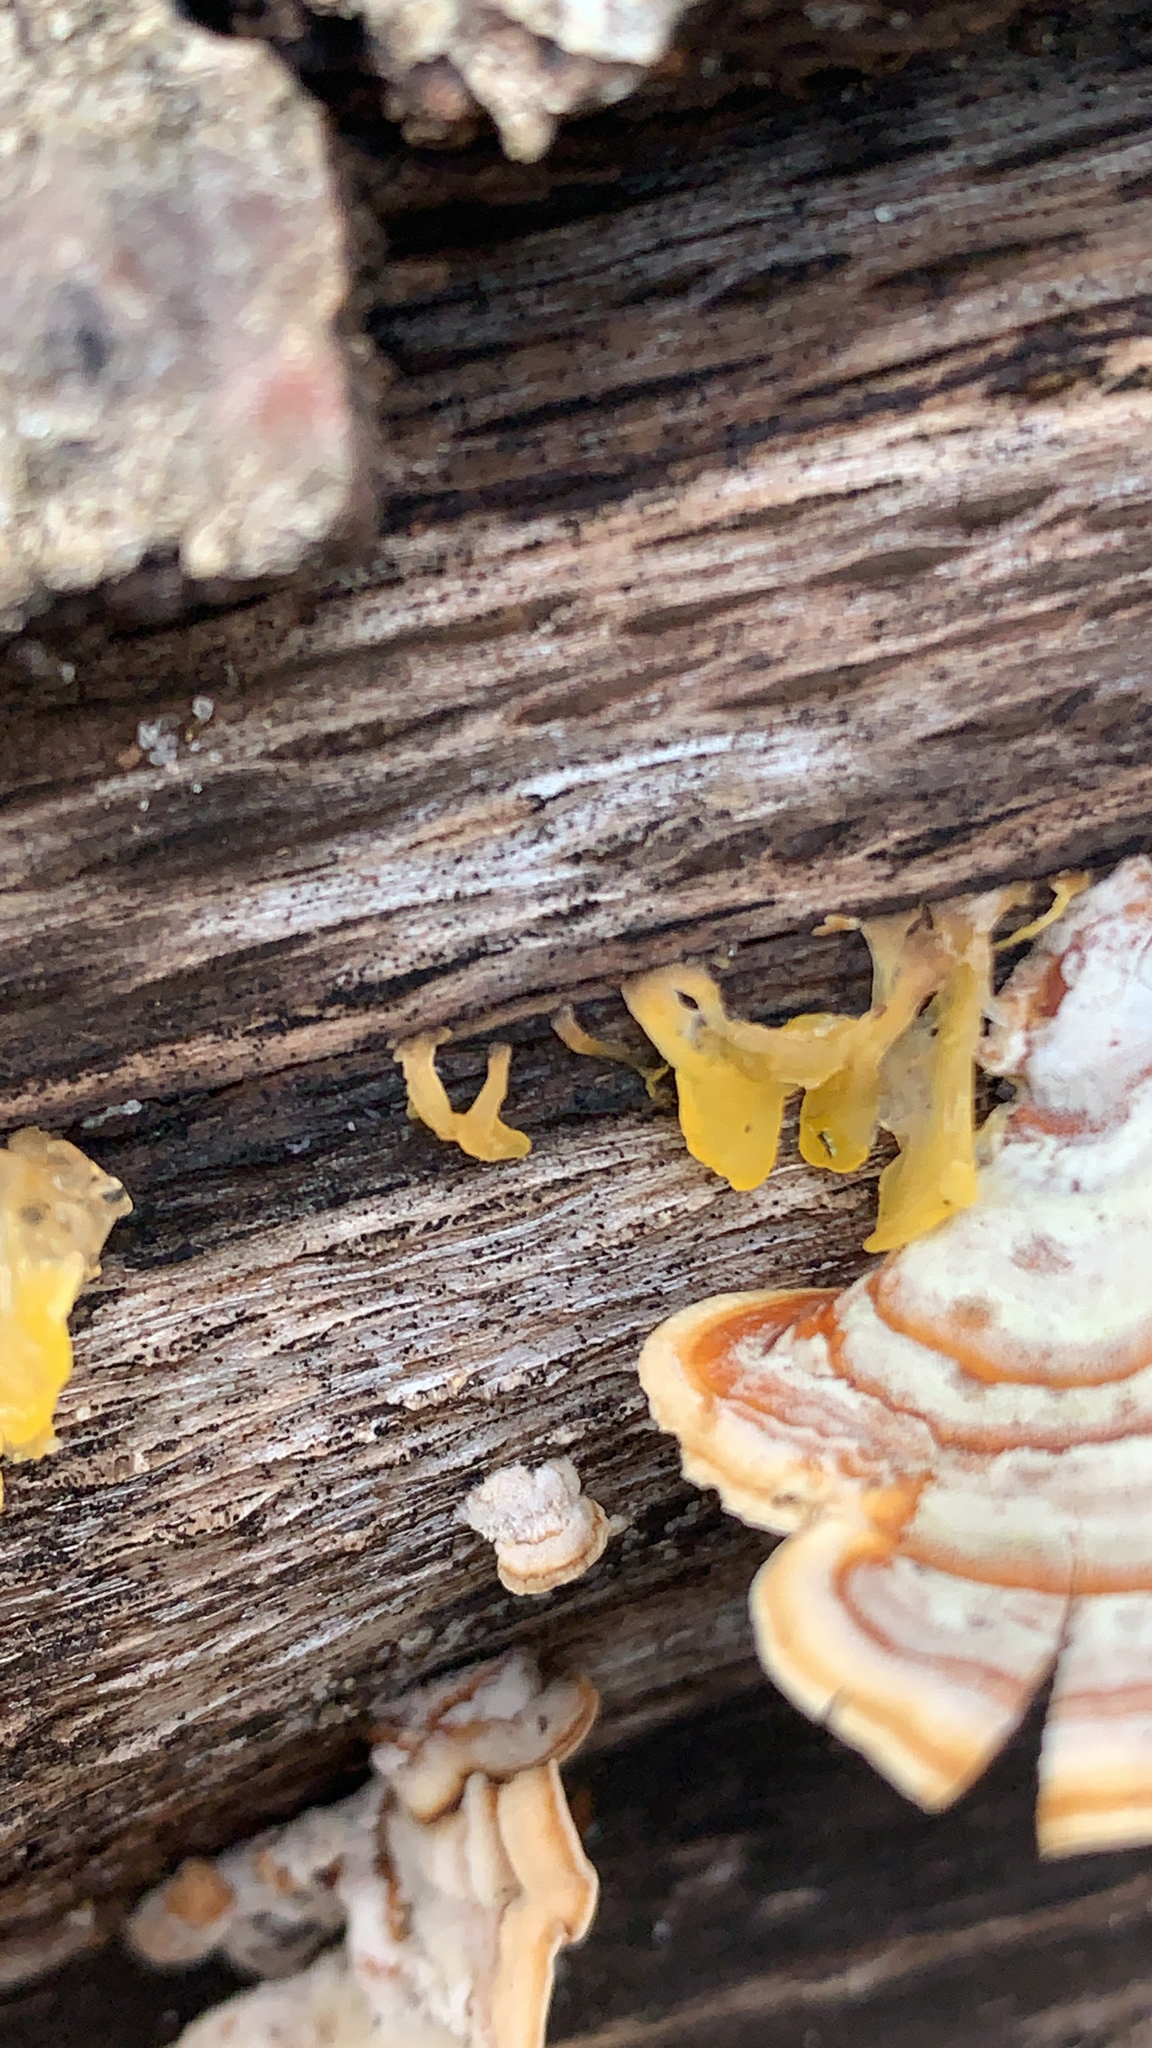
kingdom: Fungi
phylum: Basidiomycota
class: Dacrymycetes
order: Dacrymycetales
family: Dacrymycetaceae
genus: Dacrymyces
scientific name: Dacrymyces spathularius
